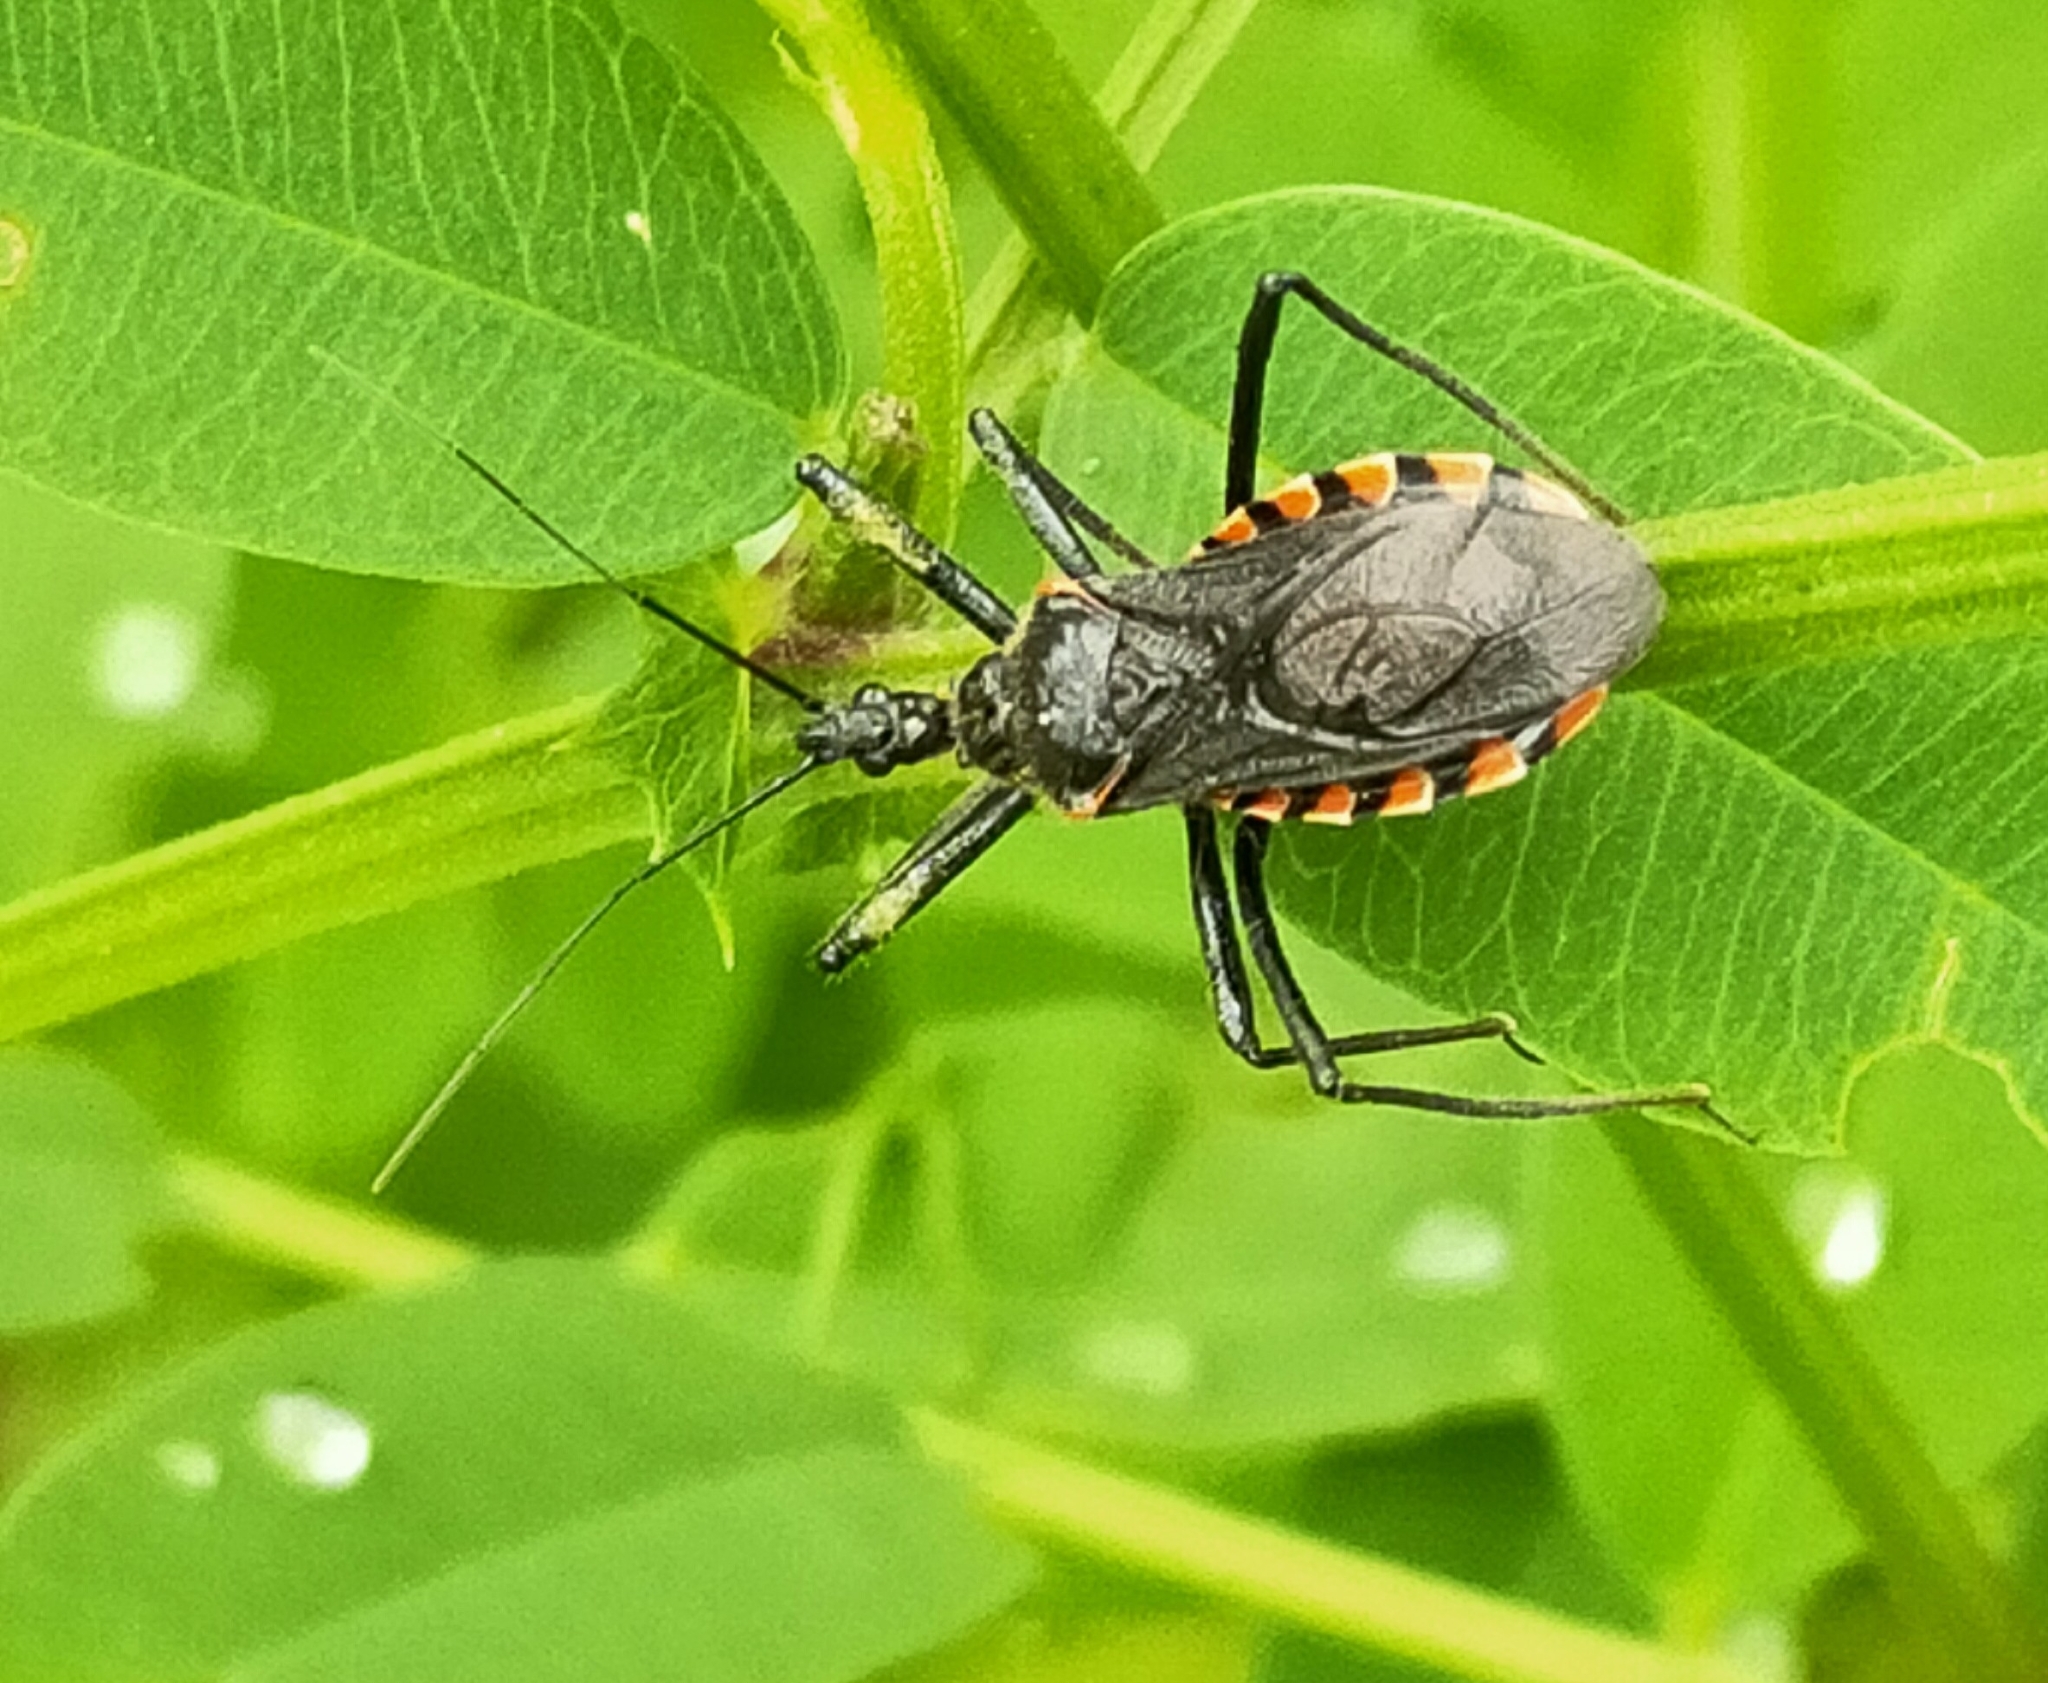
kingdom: Animalia
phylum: Arthropoda
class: Insecta
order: Hemiptera
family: Reduviidae
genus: Rhynocoris
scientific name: Rhynocoris leucospilus
